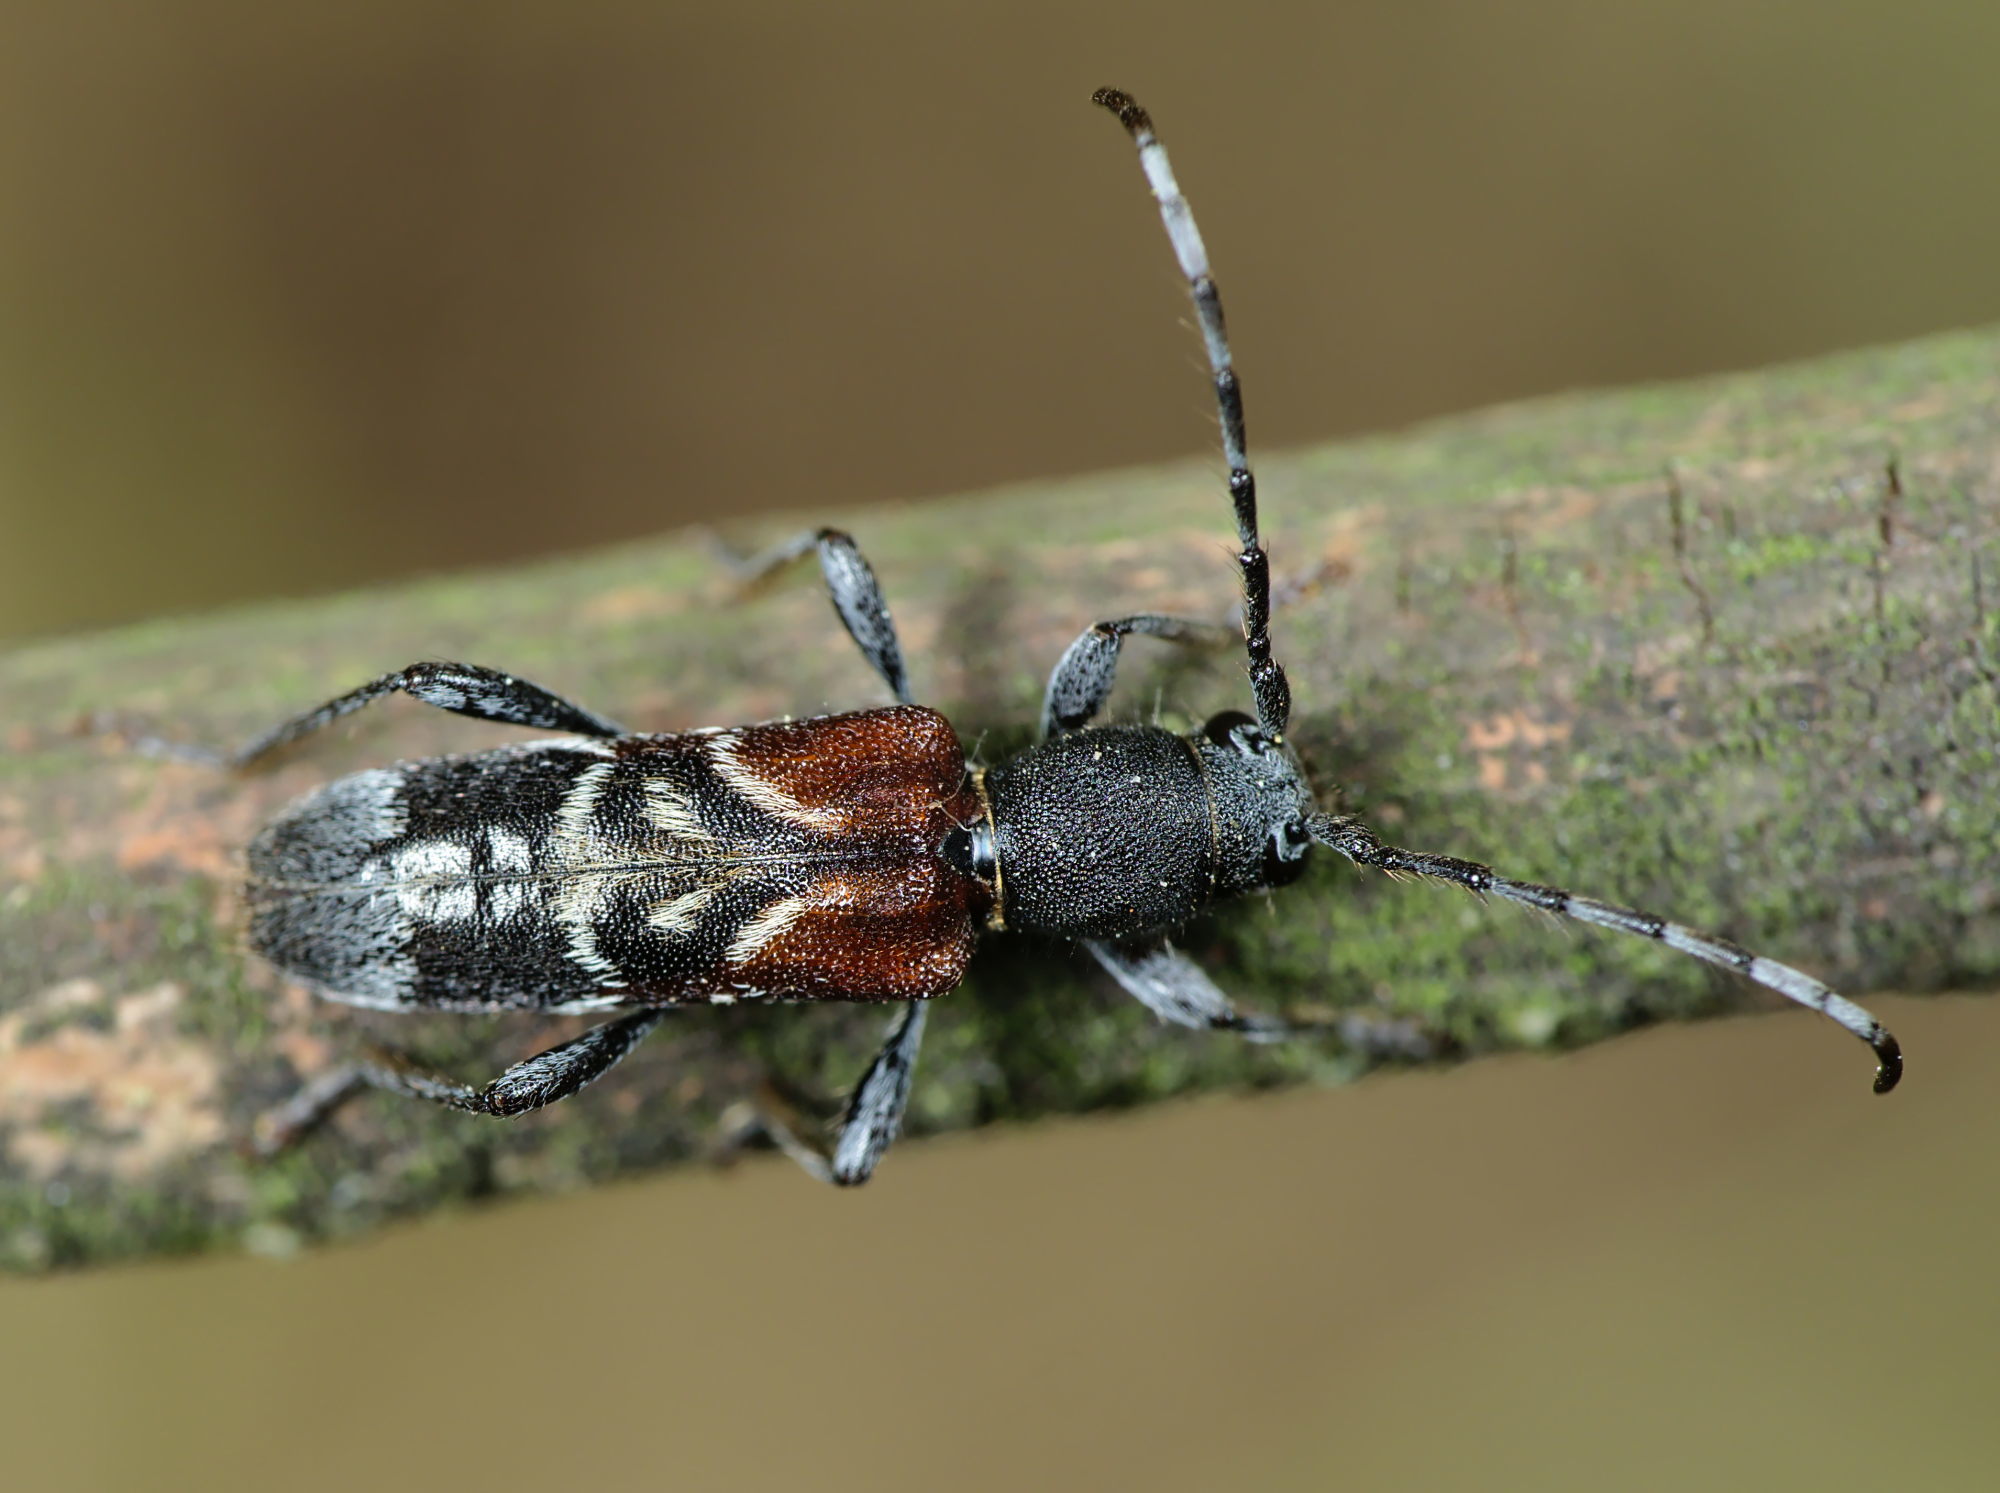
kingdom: Animalia
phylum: Arthropoda
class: Insecta
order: Coleoptera
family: Cerambycidae
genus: Anaglyptus
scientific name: Anaglyptus mysticus
